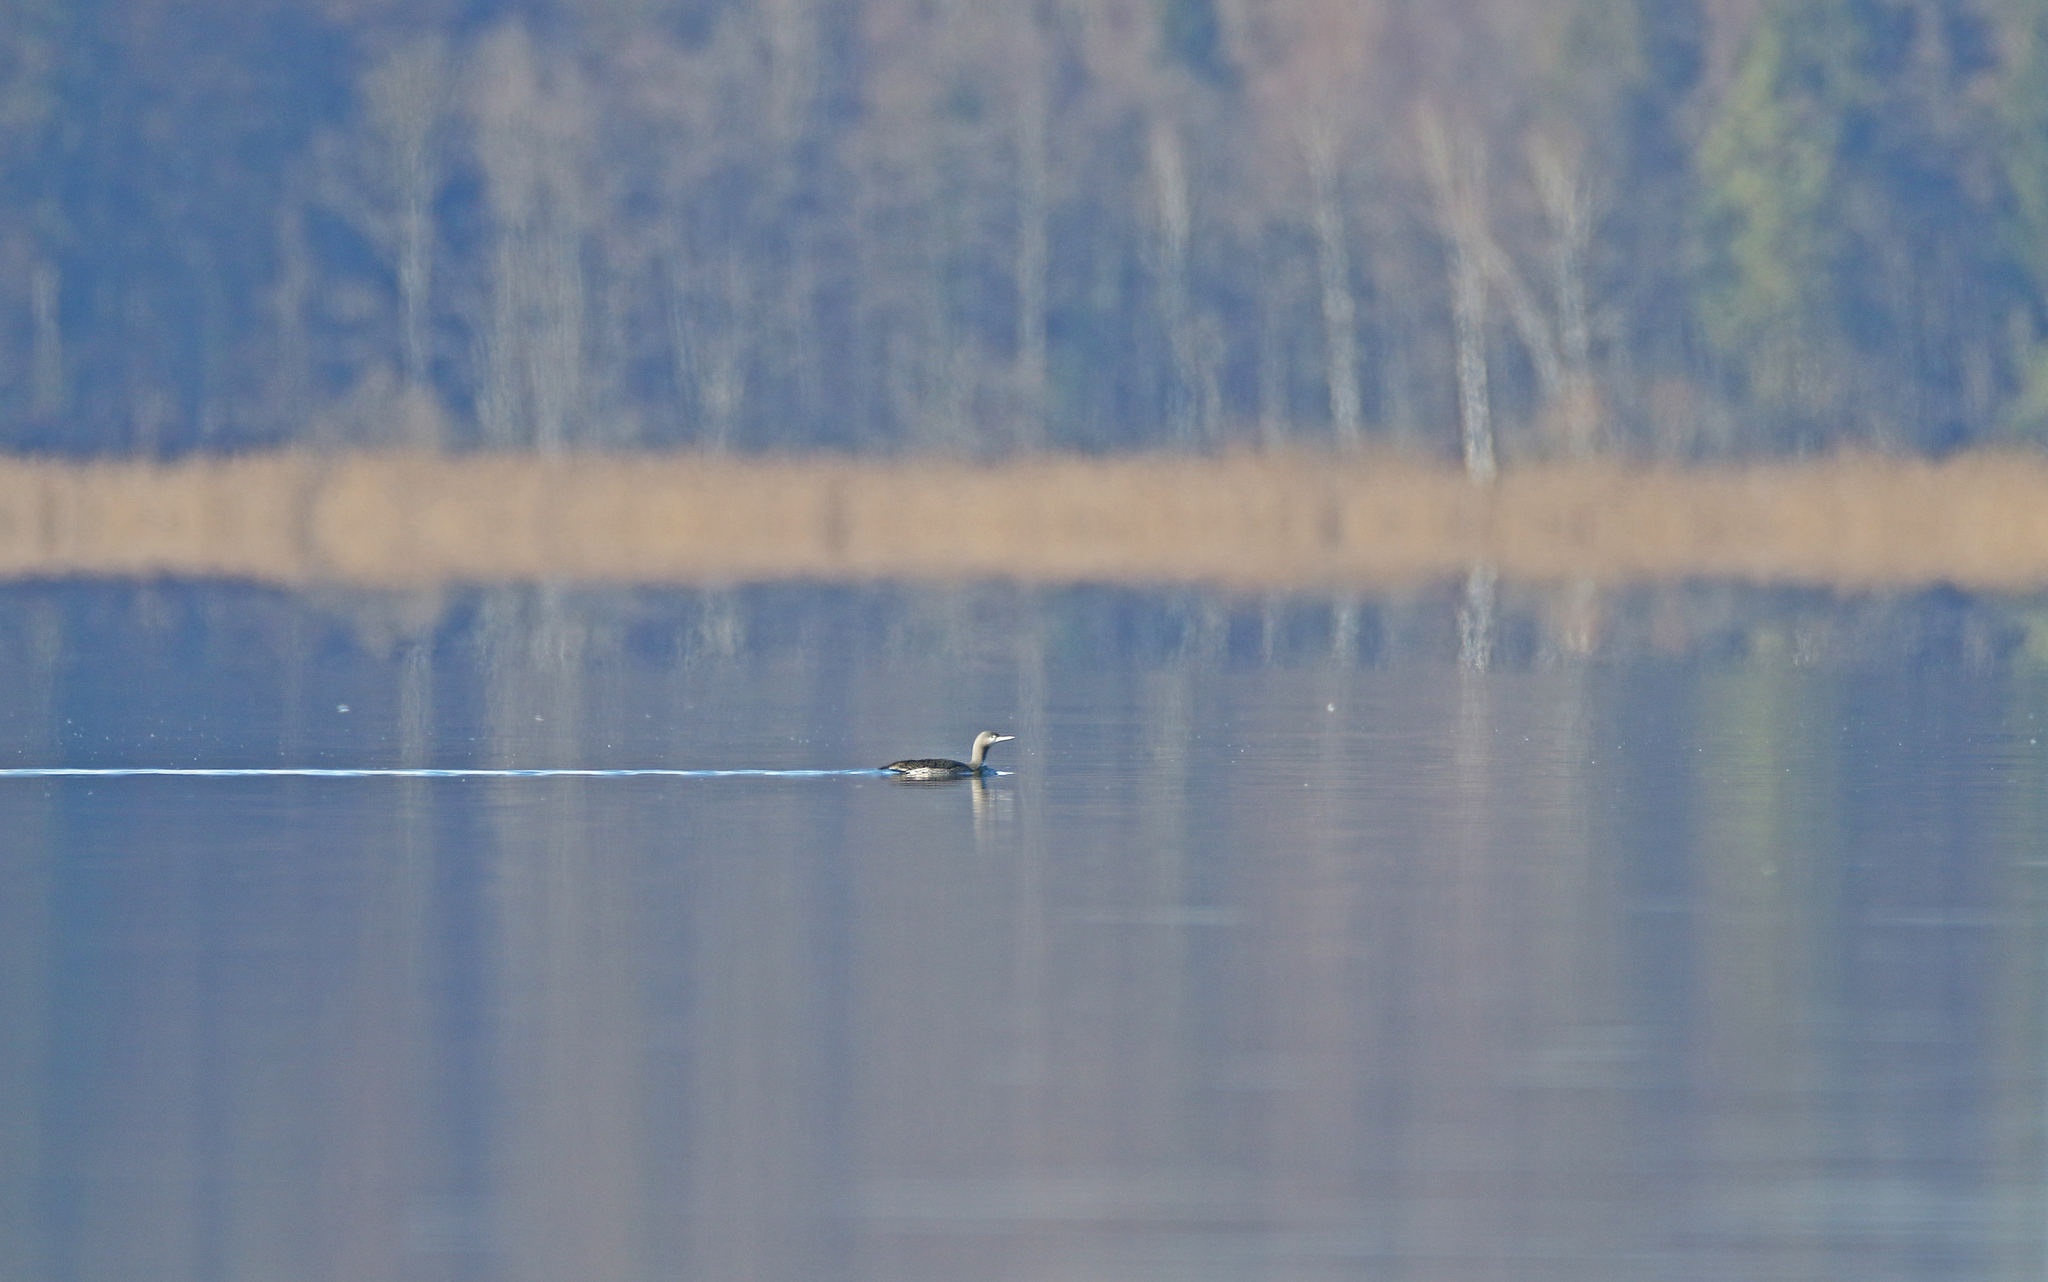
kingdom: Animalia
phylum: Chordata
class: Aves
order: Gaviiformes
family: Gaviidae
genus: Gavia
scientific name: Gavia stellata
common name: Red-throated loon
